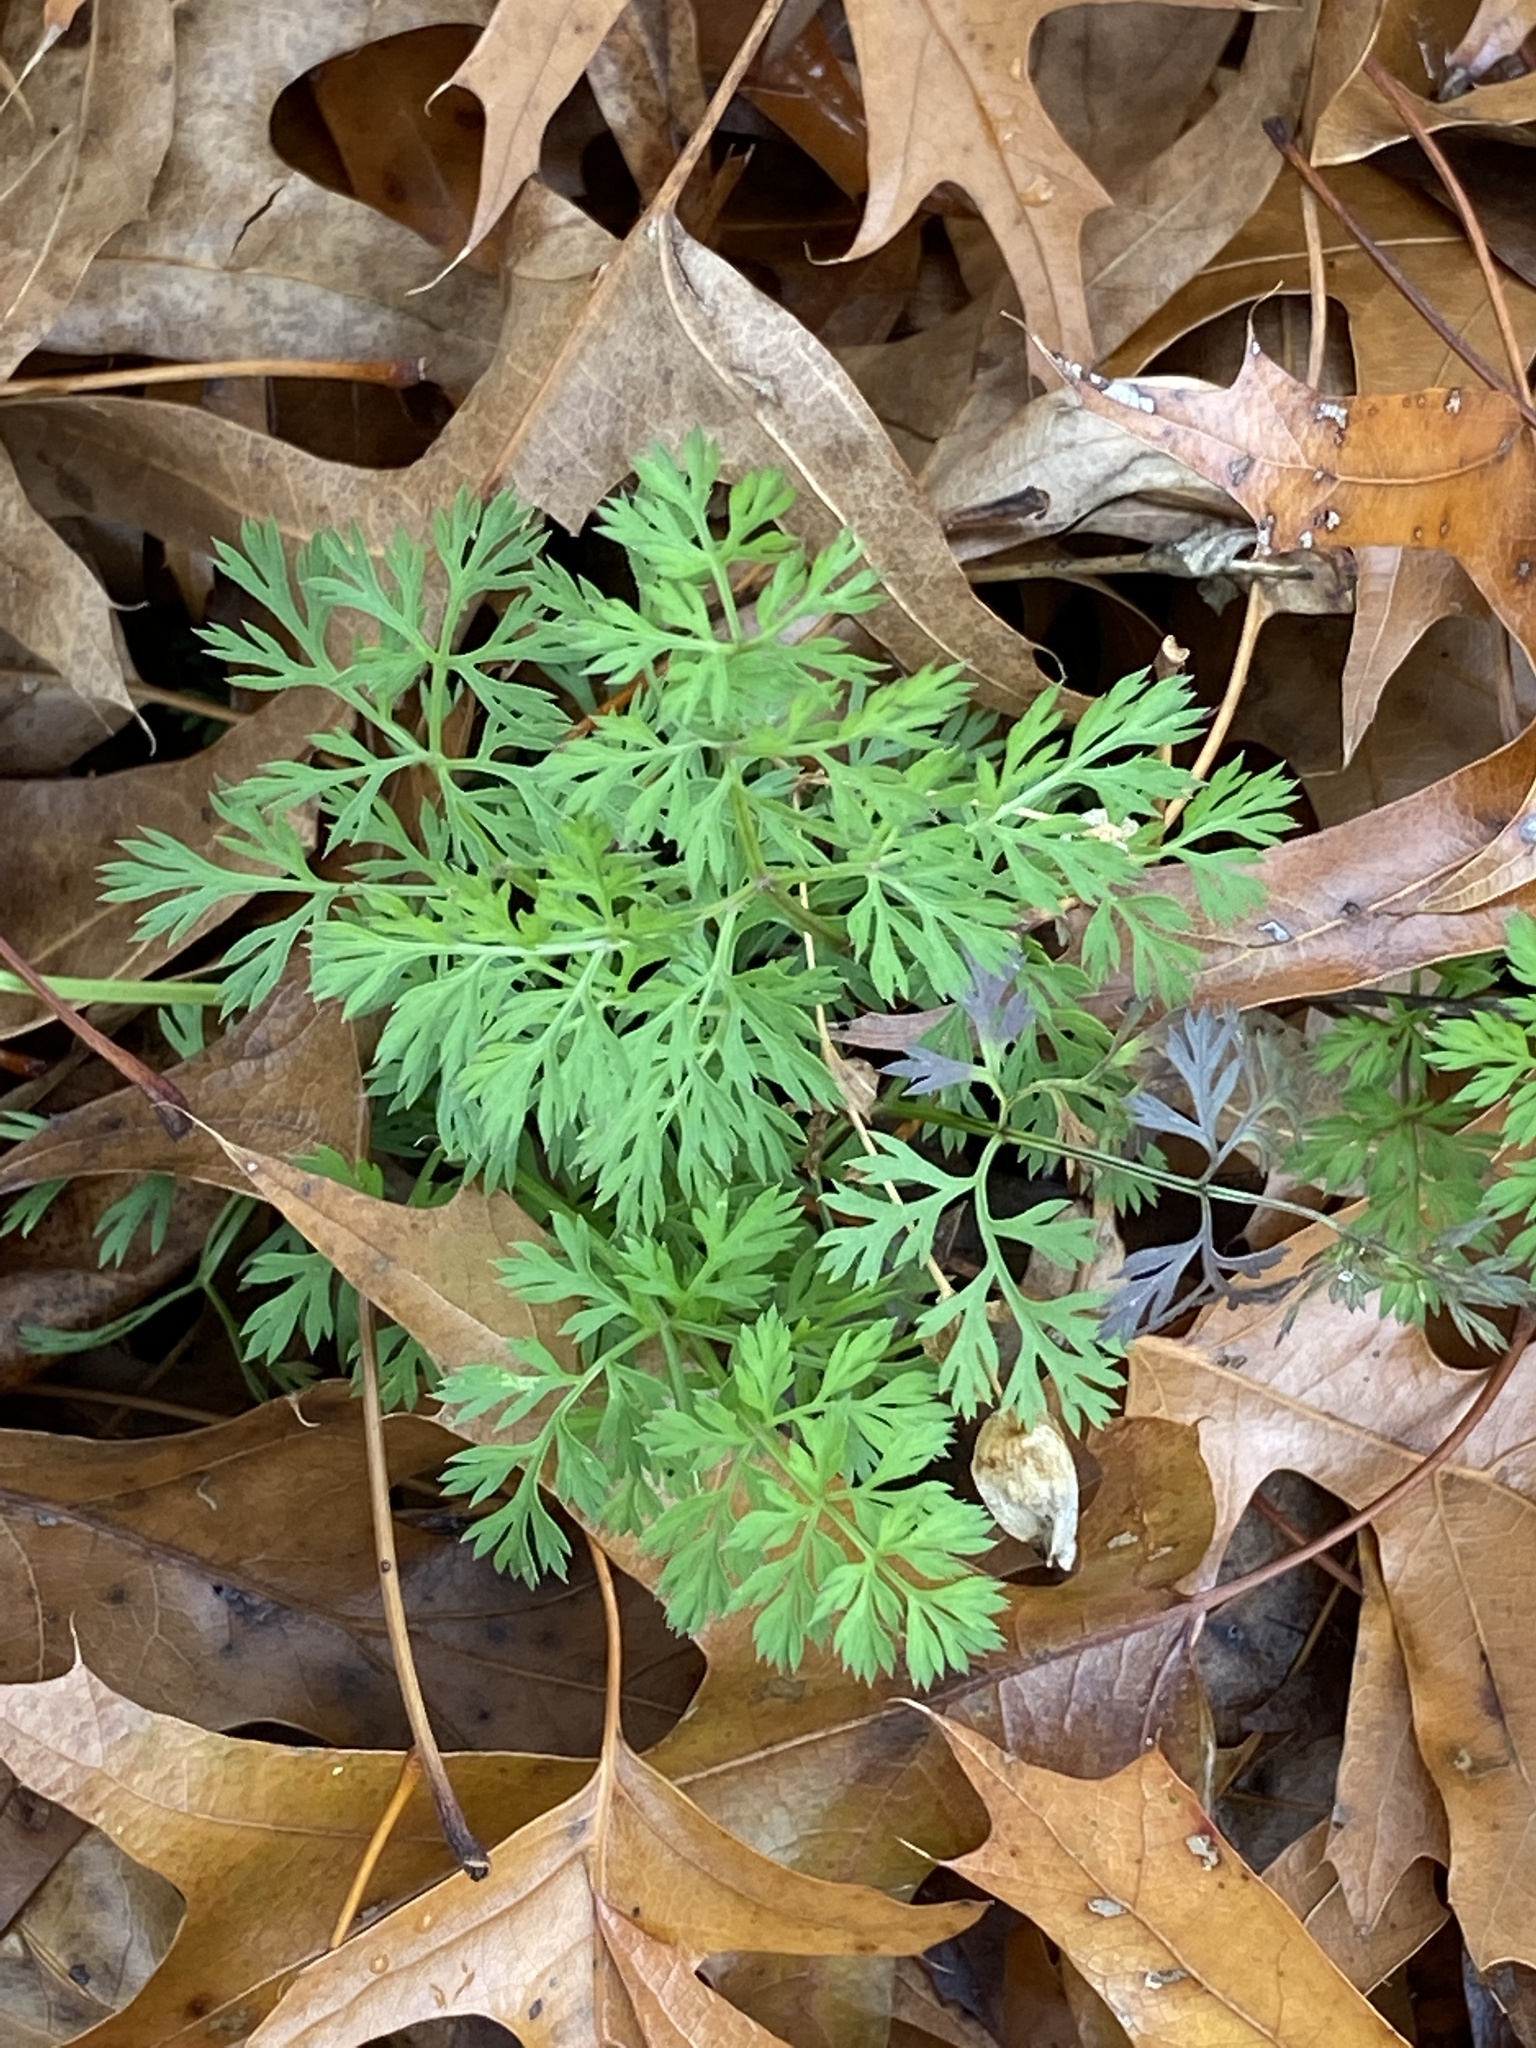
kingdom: Plantae
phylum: Tracheophyta
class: Magnoliopsida
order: Apiales
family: Apiaceae
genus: Daucus
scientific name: Daucus carota
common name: Wild carrot
